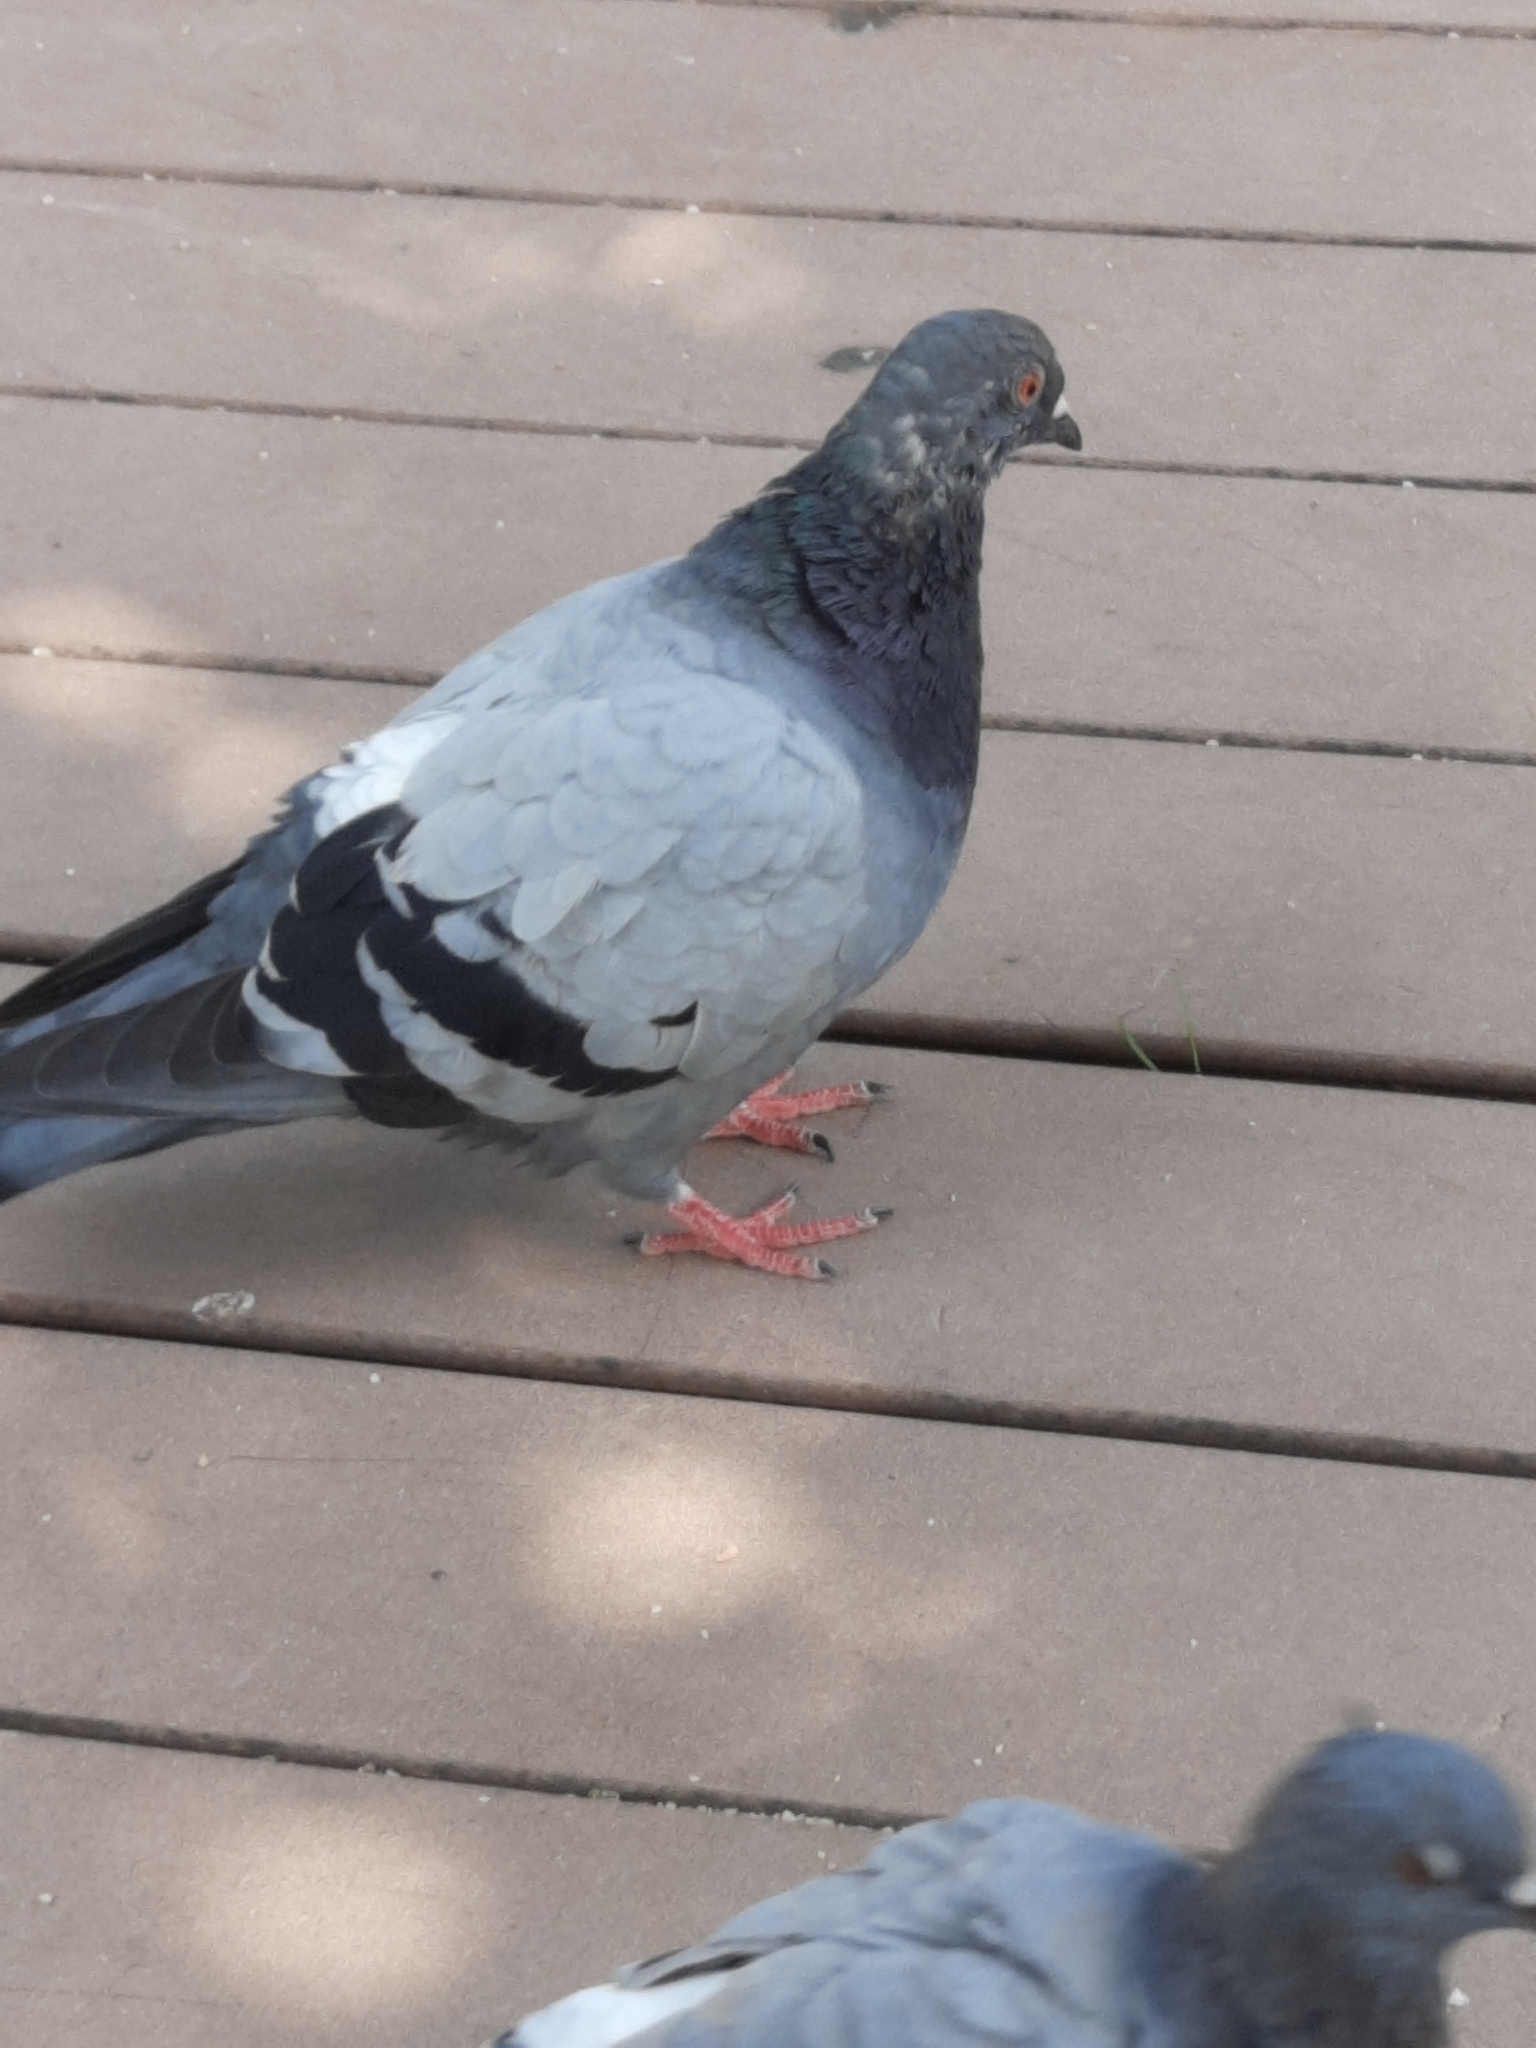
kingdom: Animalia
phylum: Chordata
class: Aves
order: Columbiformes
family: Columbidae
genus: Columba
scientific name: Columba livia
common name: Rock pigeon
